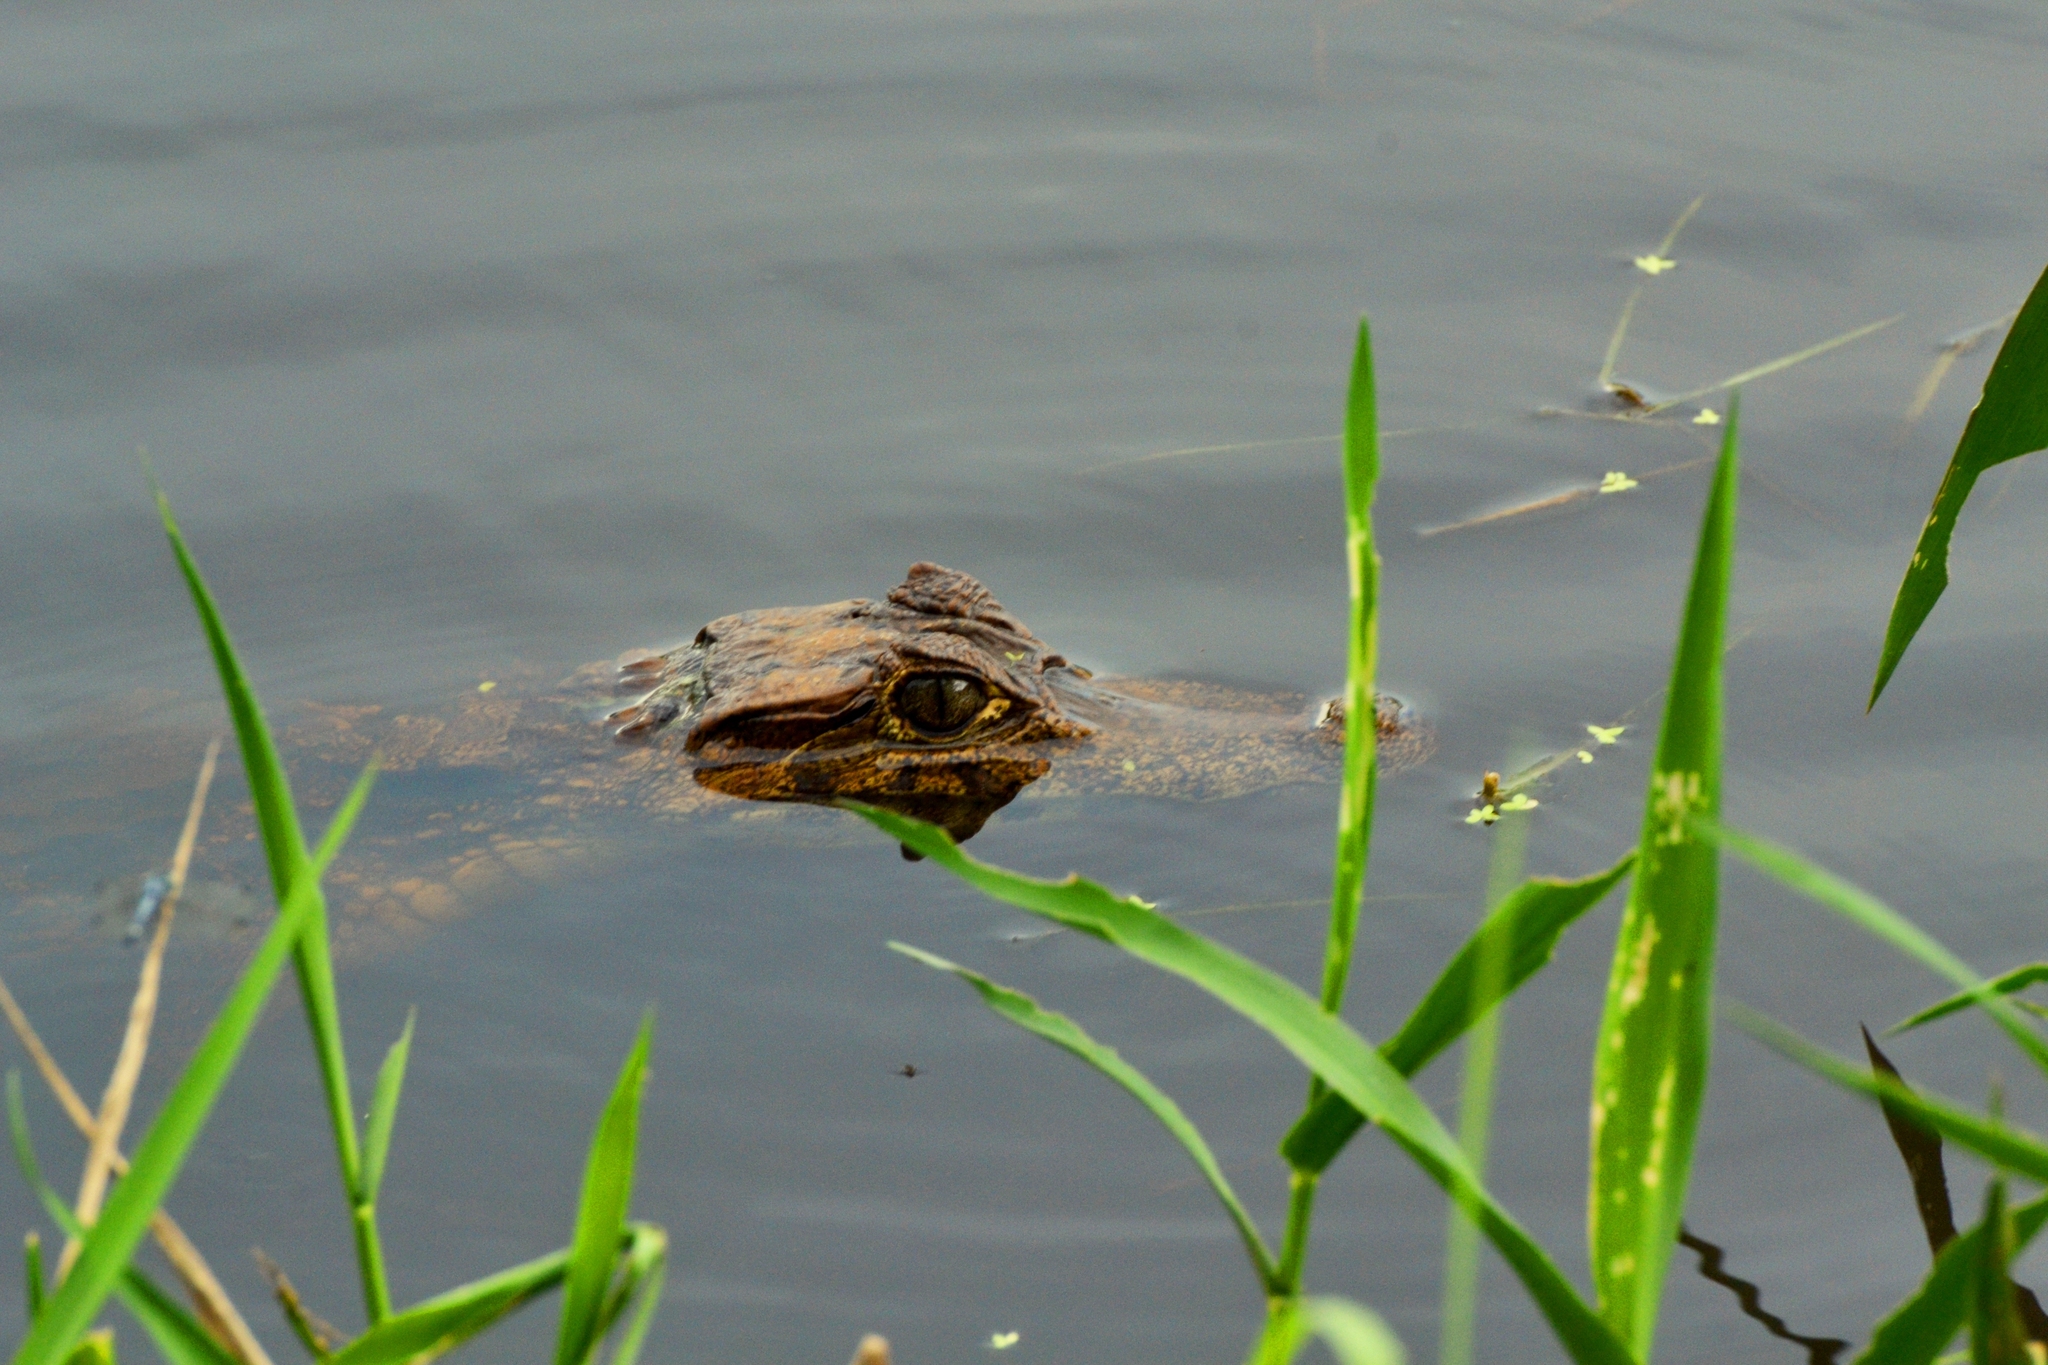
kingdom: Animalia
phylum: Chordata
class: Crocodylia
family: Alligatoridae
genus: Caiman
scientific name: Caiman crocodilus
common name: Common caiman
